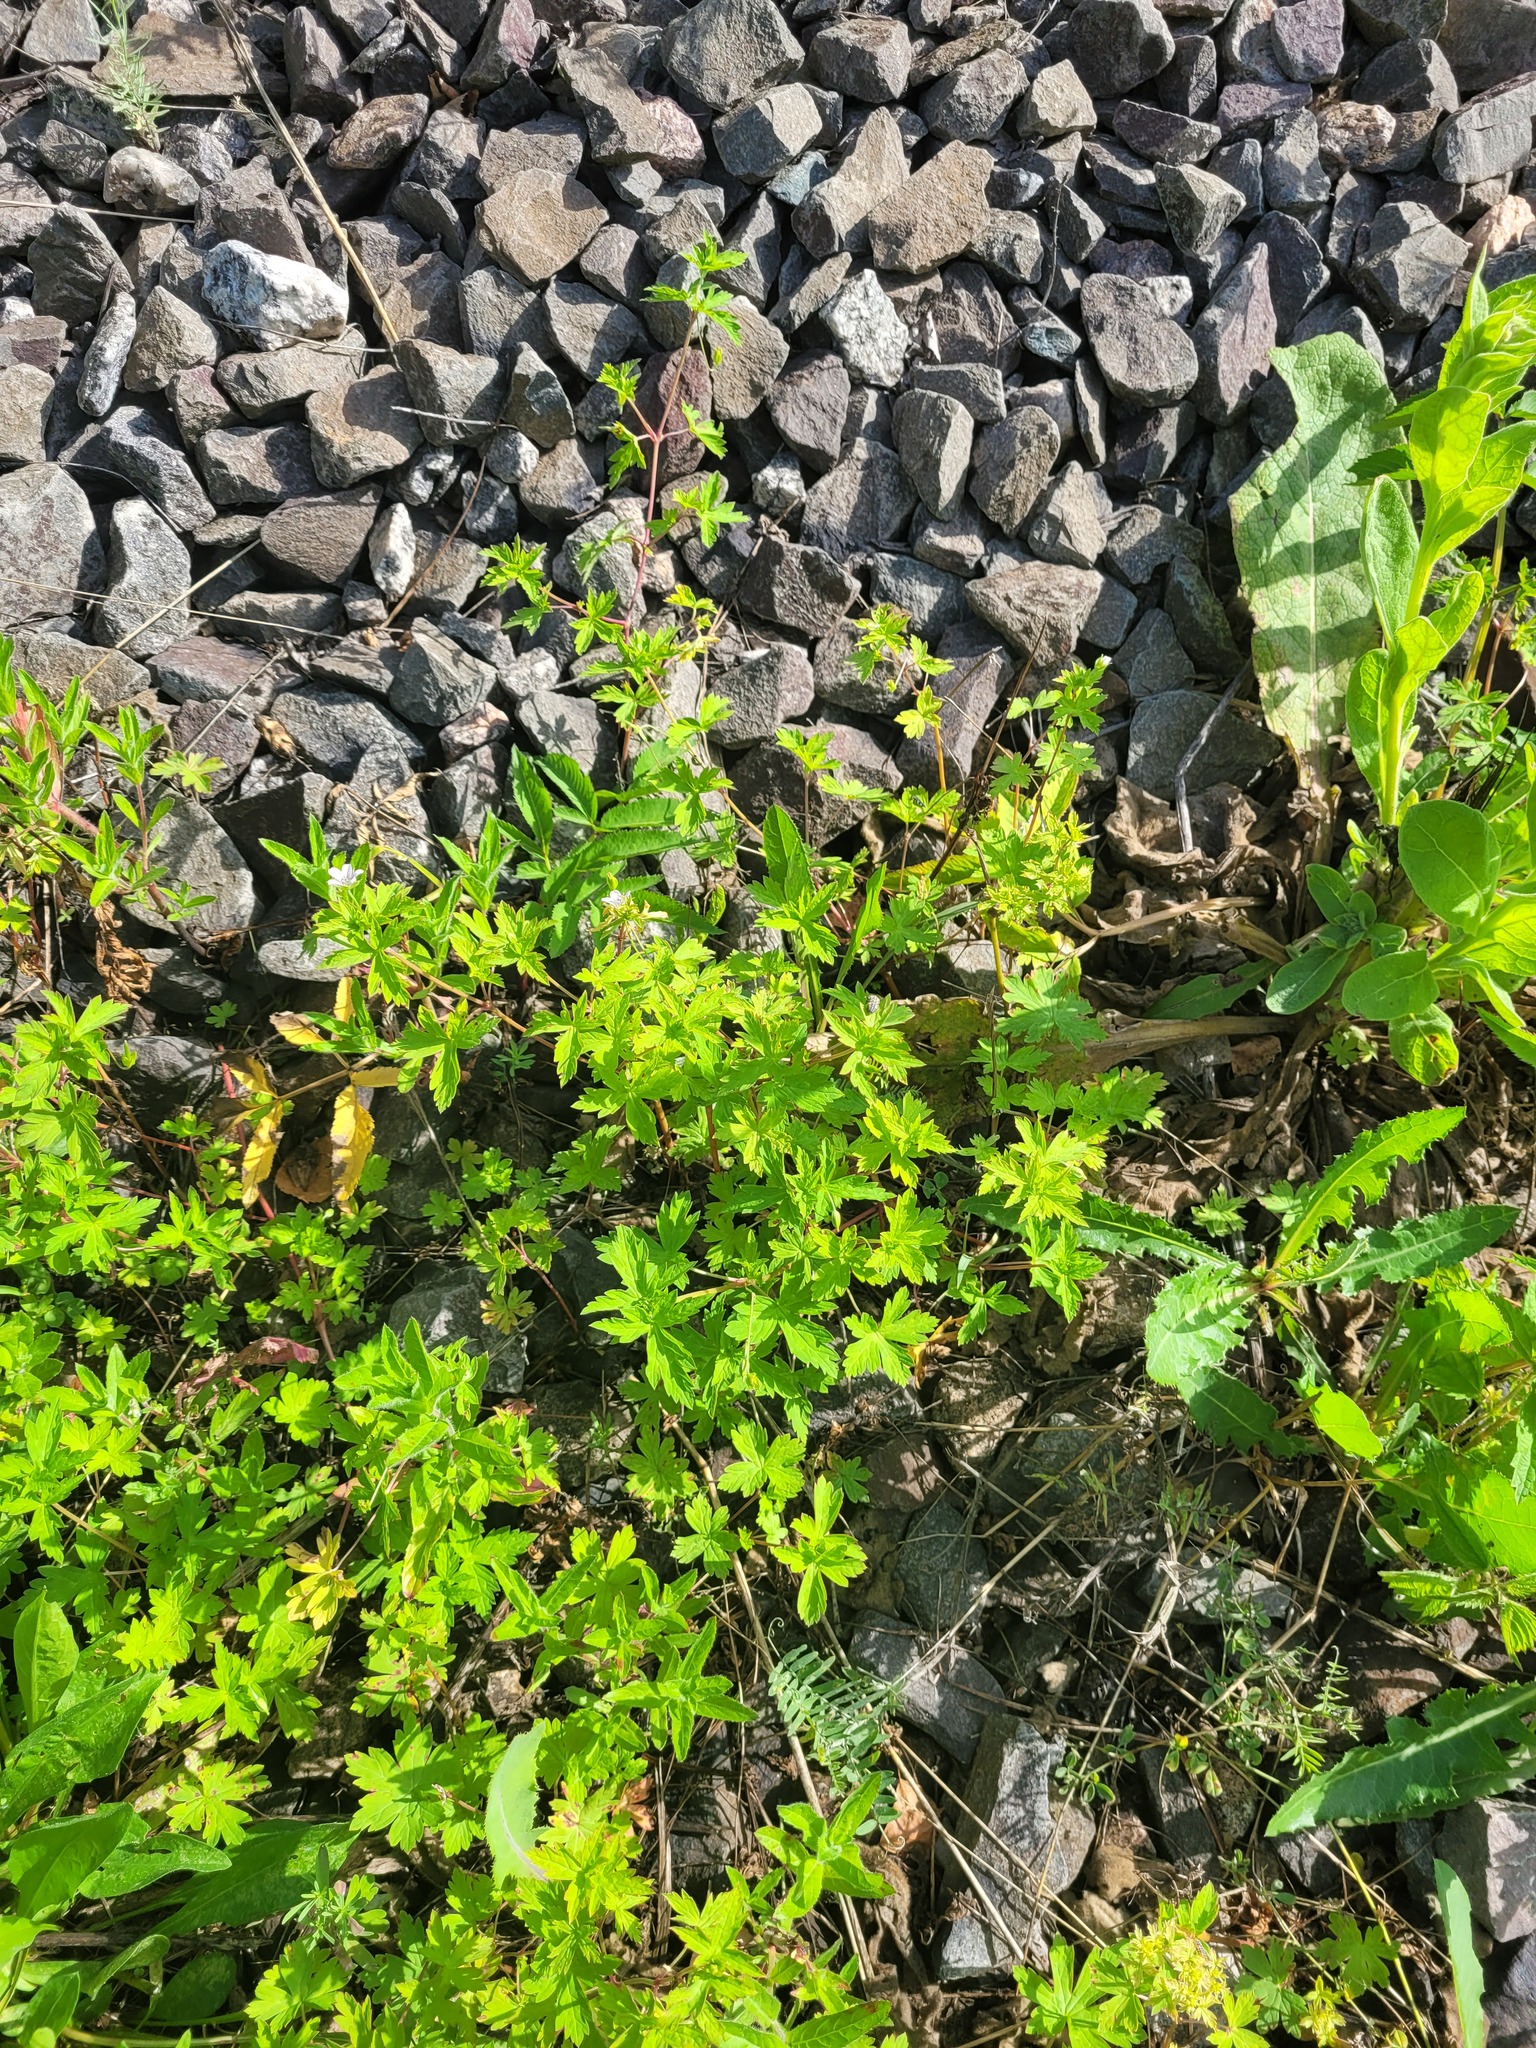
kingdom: Plantae
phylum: Tracheophyta
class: Magnoliopsida
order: Geraniales
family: Geraniaceae
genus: Geranium
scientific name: Geranium sibiricum
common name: Siberian crane's-bill
